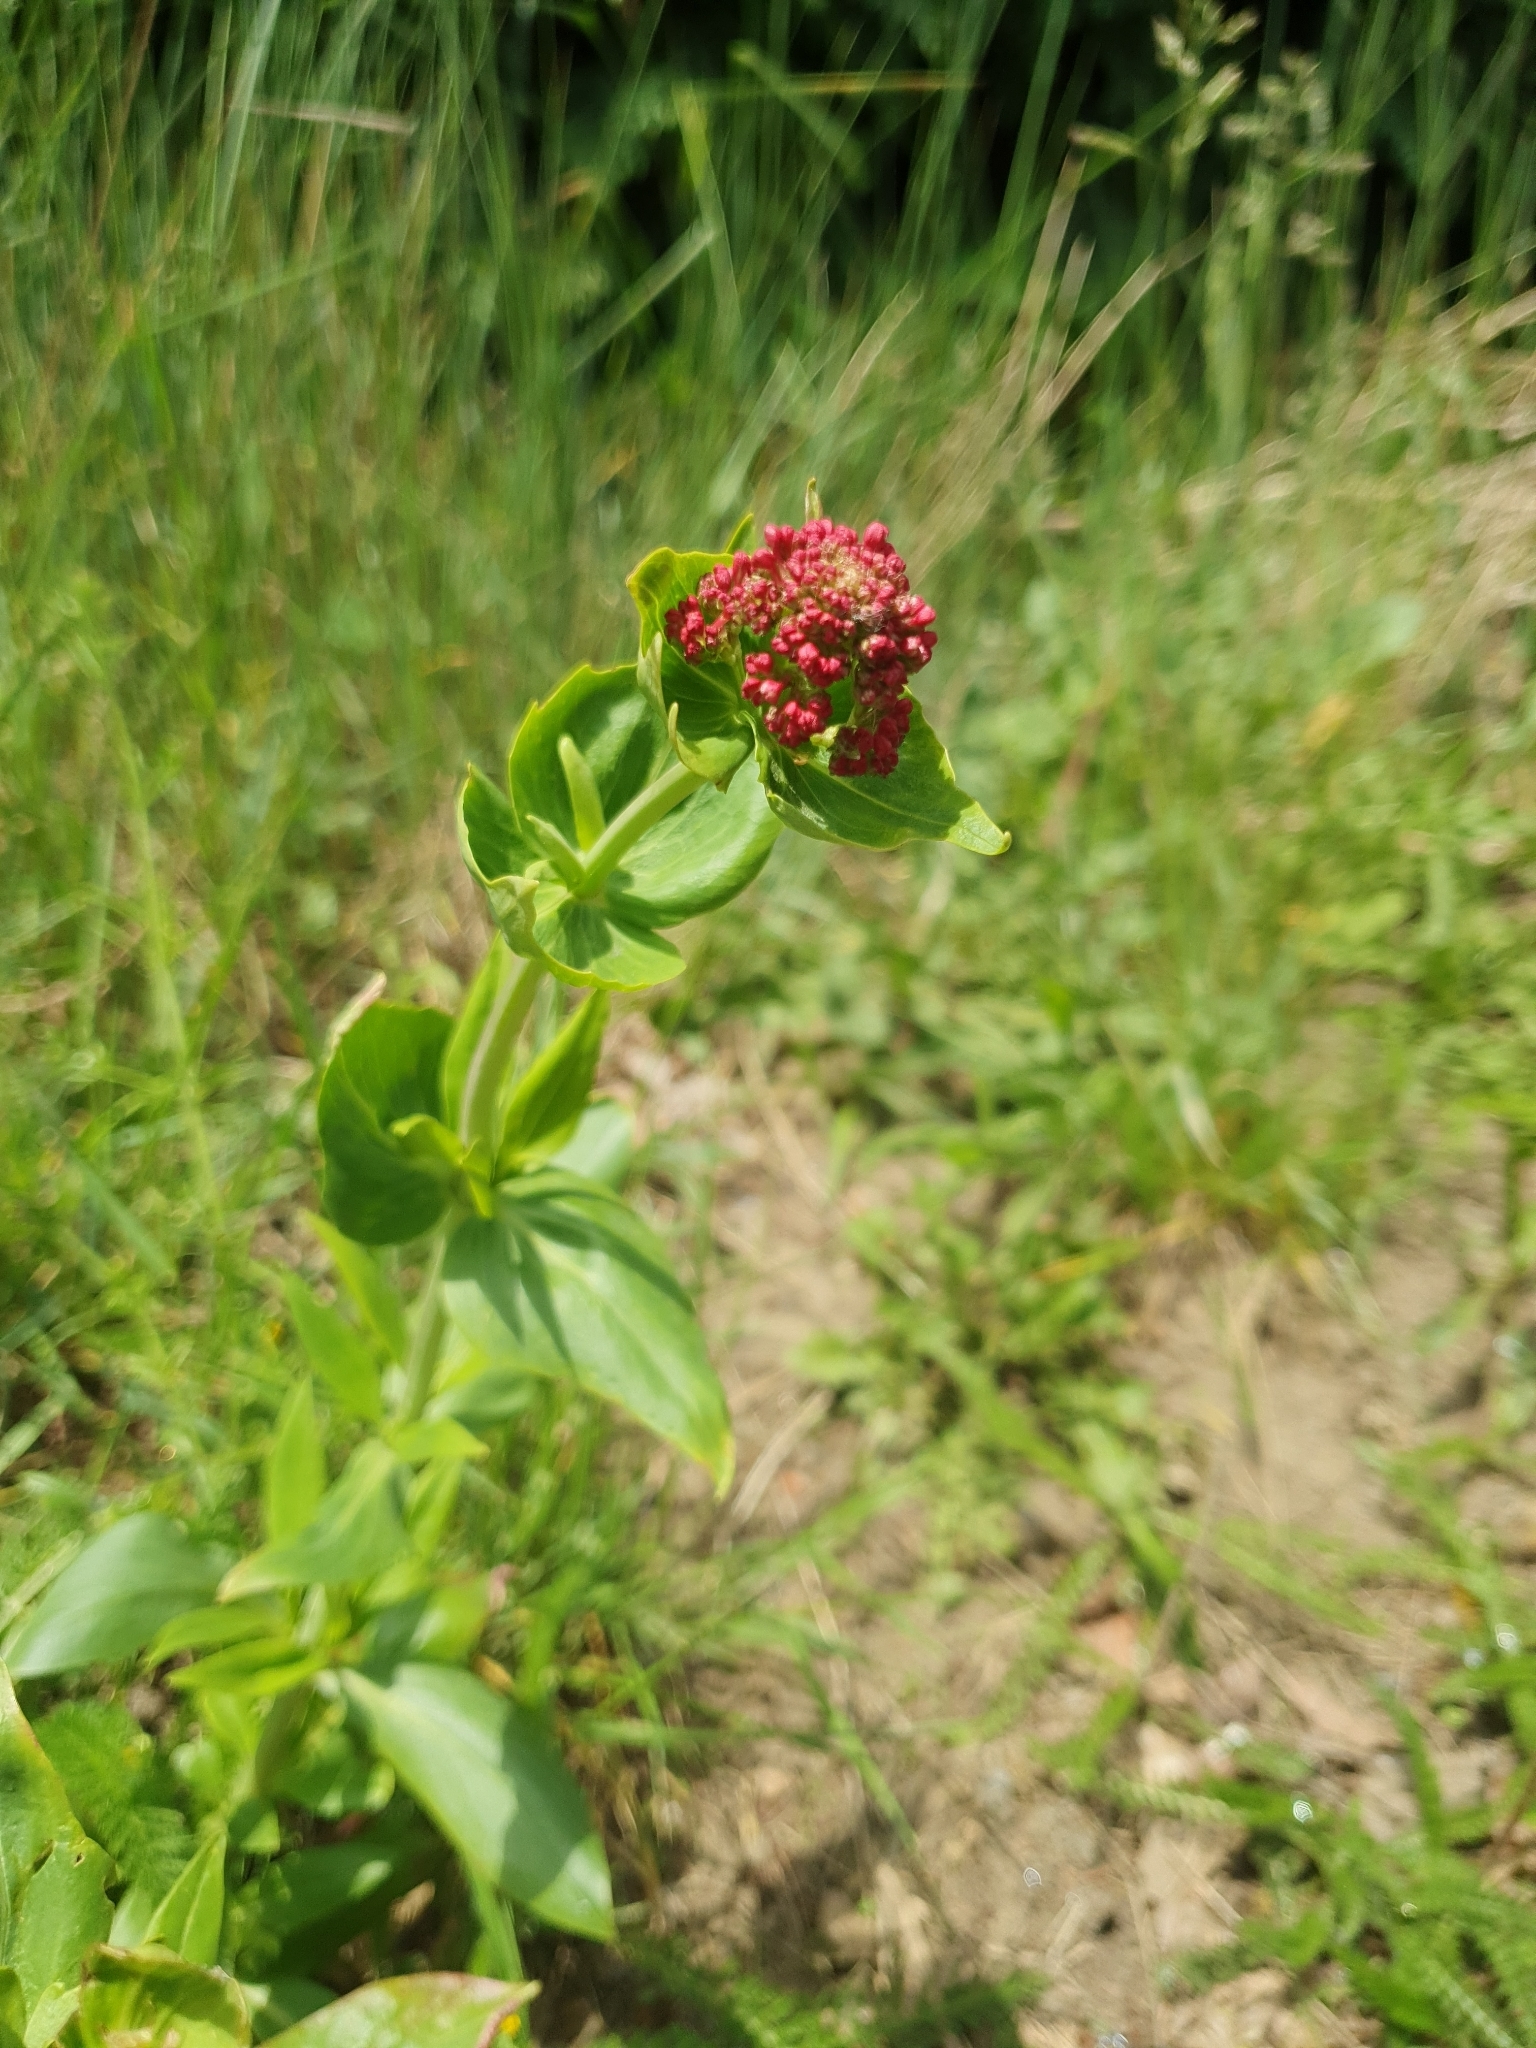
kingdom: Plantae
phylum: Tracheophyta
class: Magnoliopsida
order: Dipsacales
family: Caprifoliaceae
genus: Centranthus
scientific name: Centranthus ruber
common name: Red valerian
